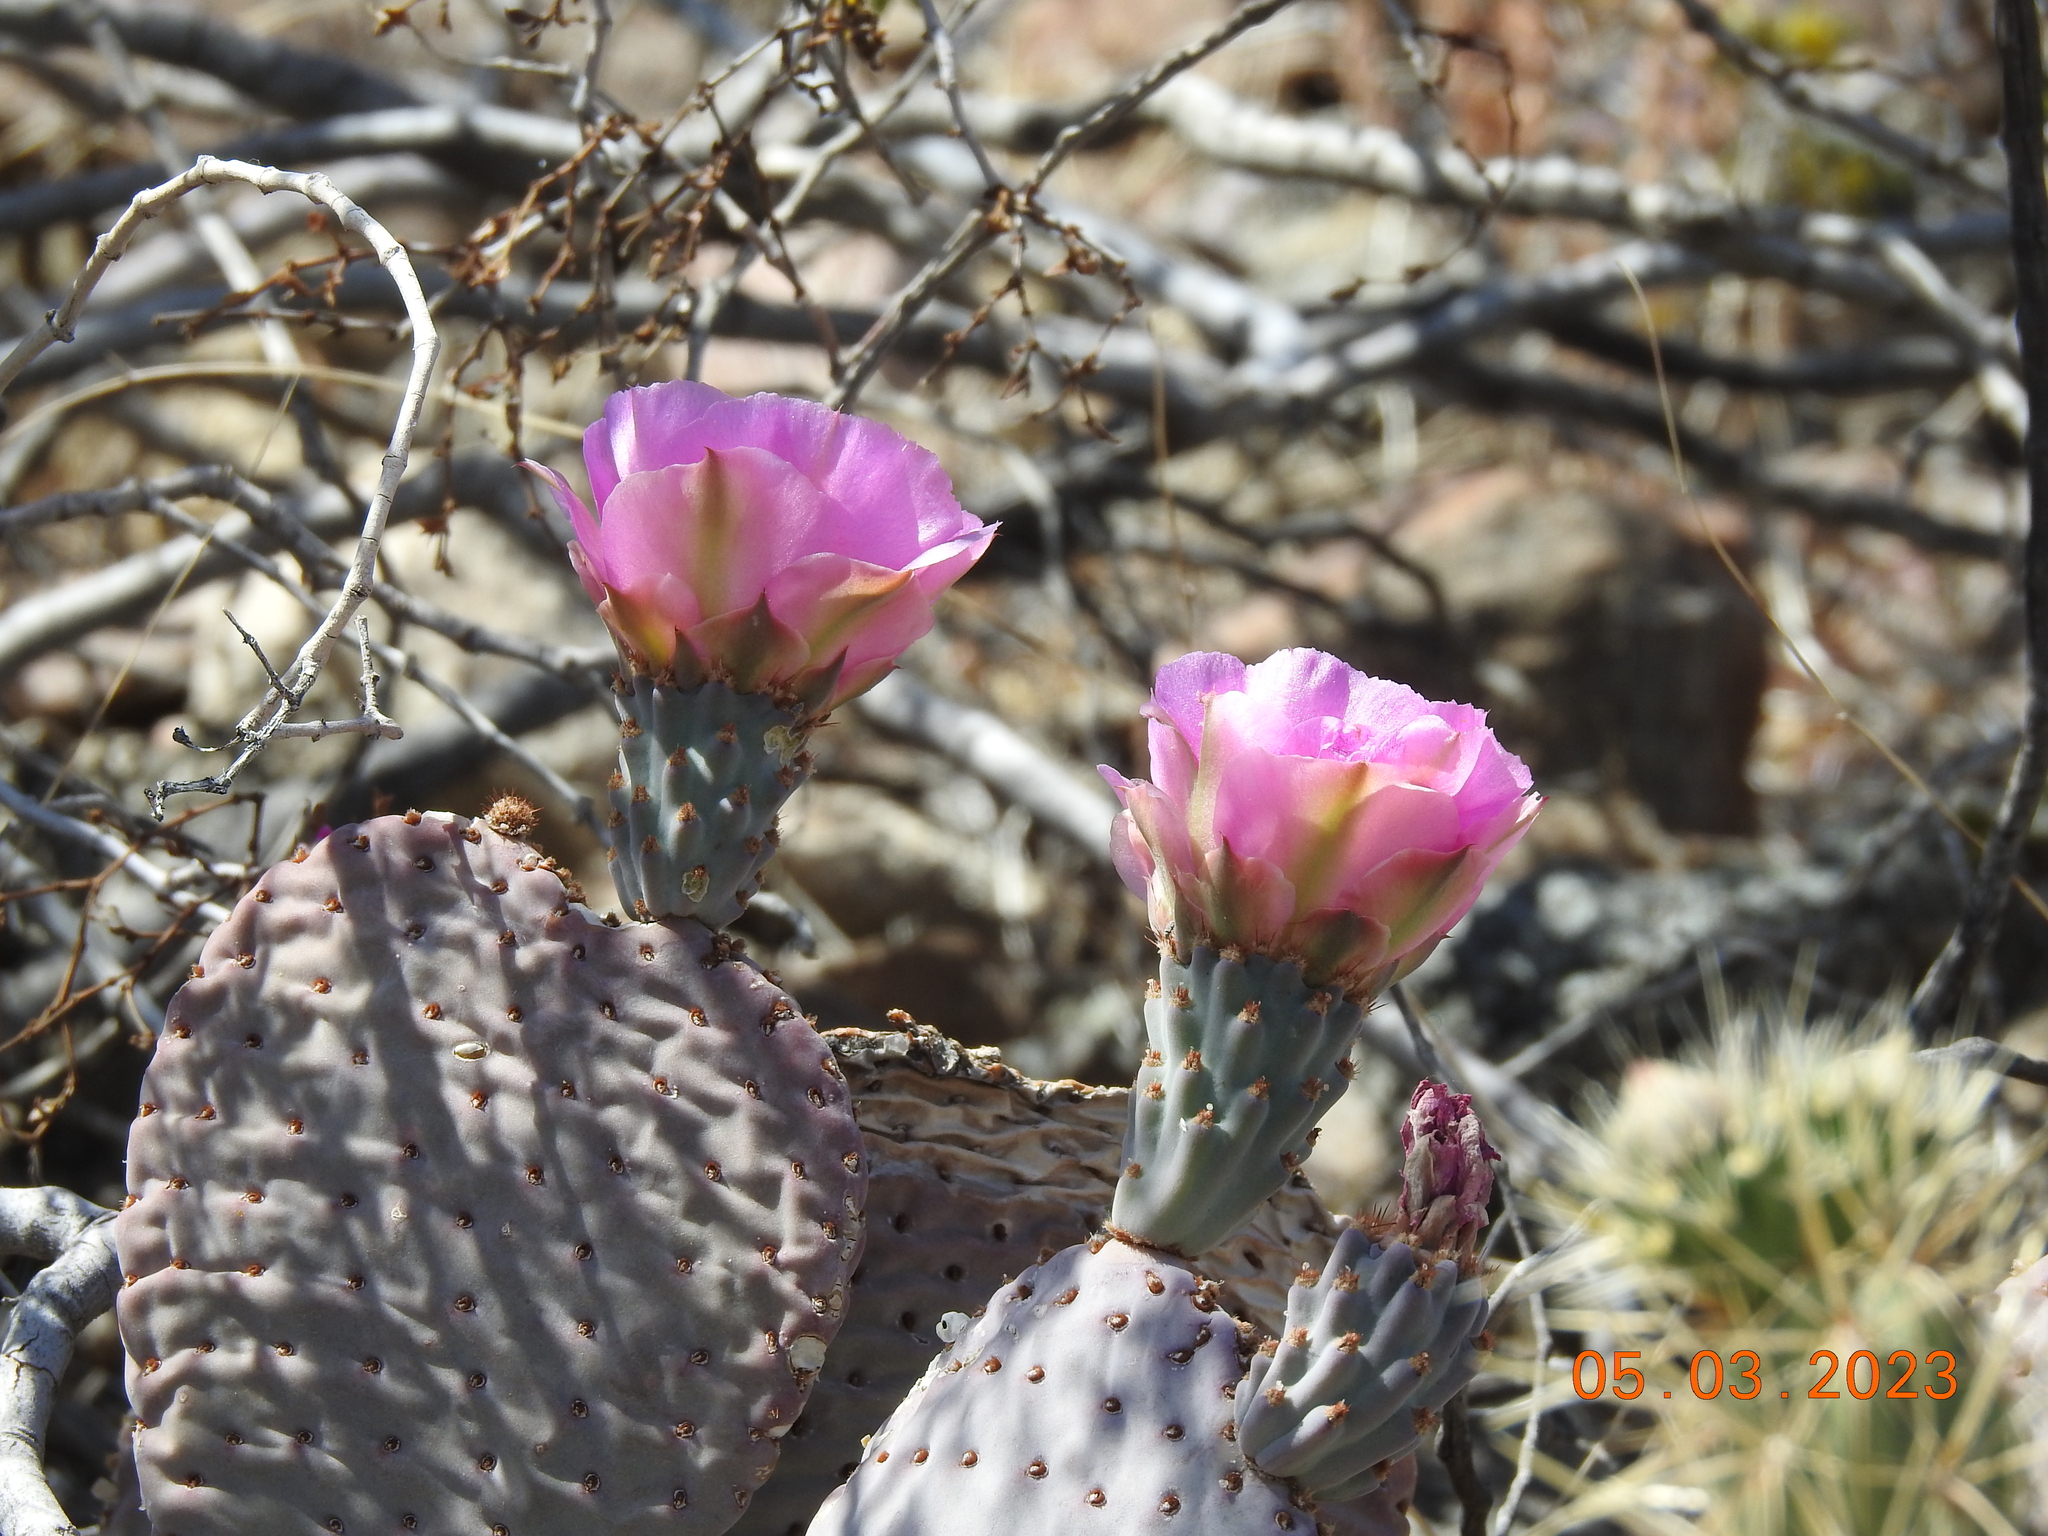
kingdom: Plantae
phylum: Tracheophyta
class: Magnoliopsida
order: Caryophyllales
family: Cactaceae
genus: Opuntia
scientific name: Opuntia basilaris
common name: Beavertail prickly-pear
